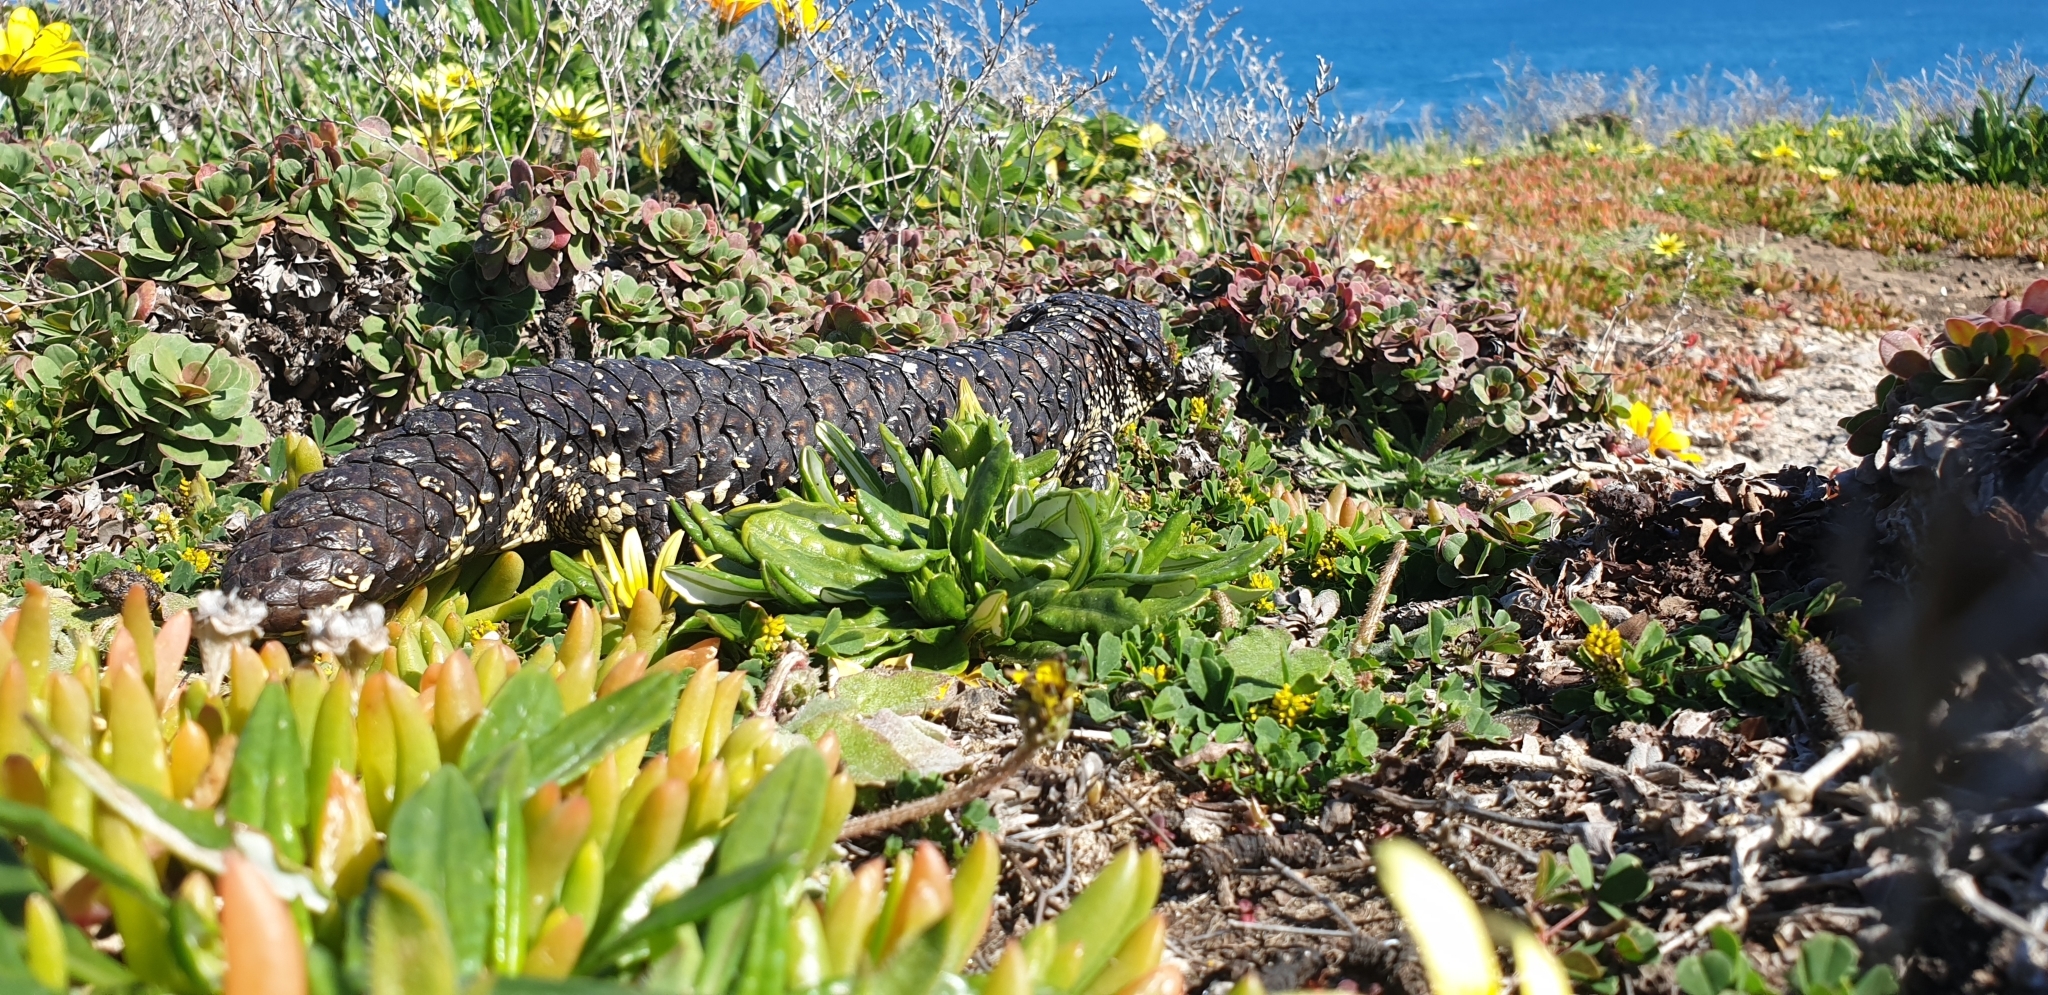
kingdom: Animalia
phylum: Chordata
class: Squamata
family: Scincidae
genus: Tiliqua
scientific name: Tiliqua rugosa
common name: Pinecone lizard
